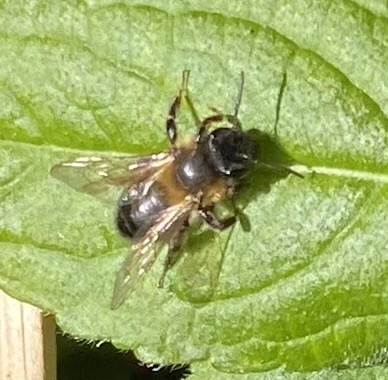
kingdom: Animalia
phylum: Arthropoda
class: Insecta
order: Hymenoptera
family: Andrenidae
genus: Andrena
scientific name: Andrena carantonica
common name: Chocolate mining bee
